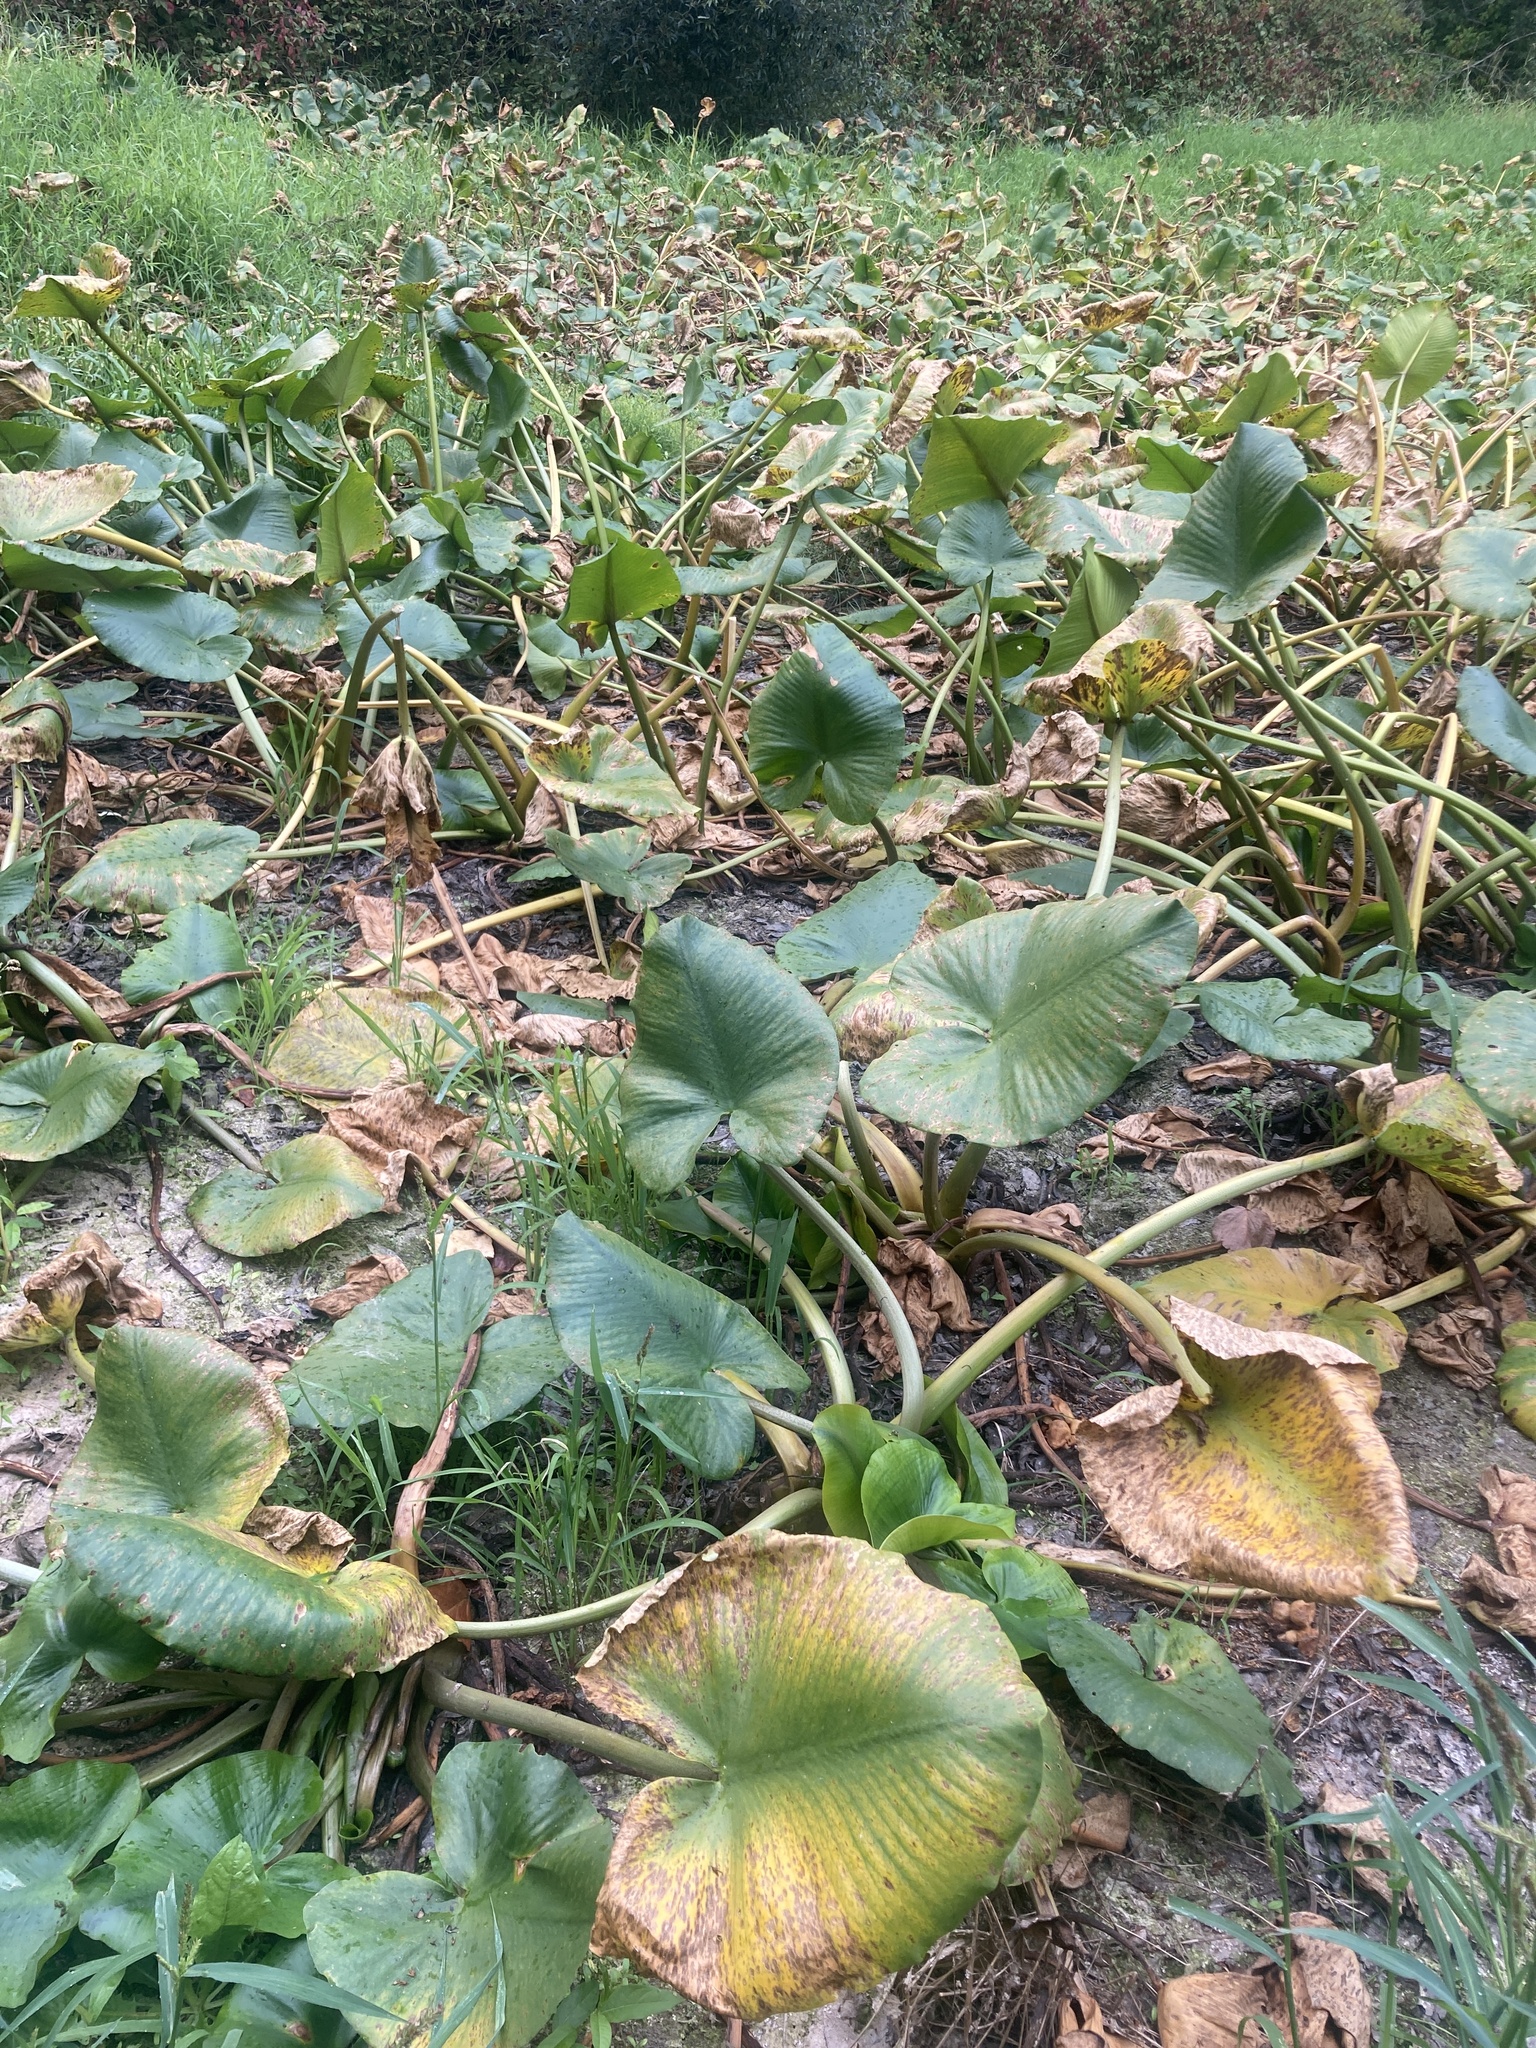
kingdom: Plantae
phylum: Tracheophyta
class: Magnoliopsida
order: Nymphaeales
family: Nymphaeaceae
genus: Nuphar
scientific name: Nuphar polysepala
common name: Rocky mountain cow-lily
